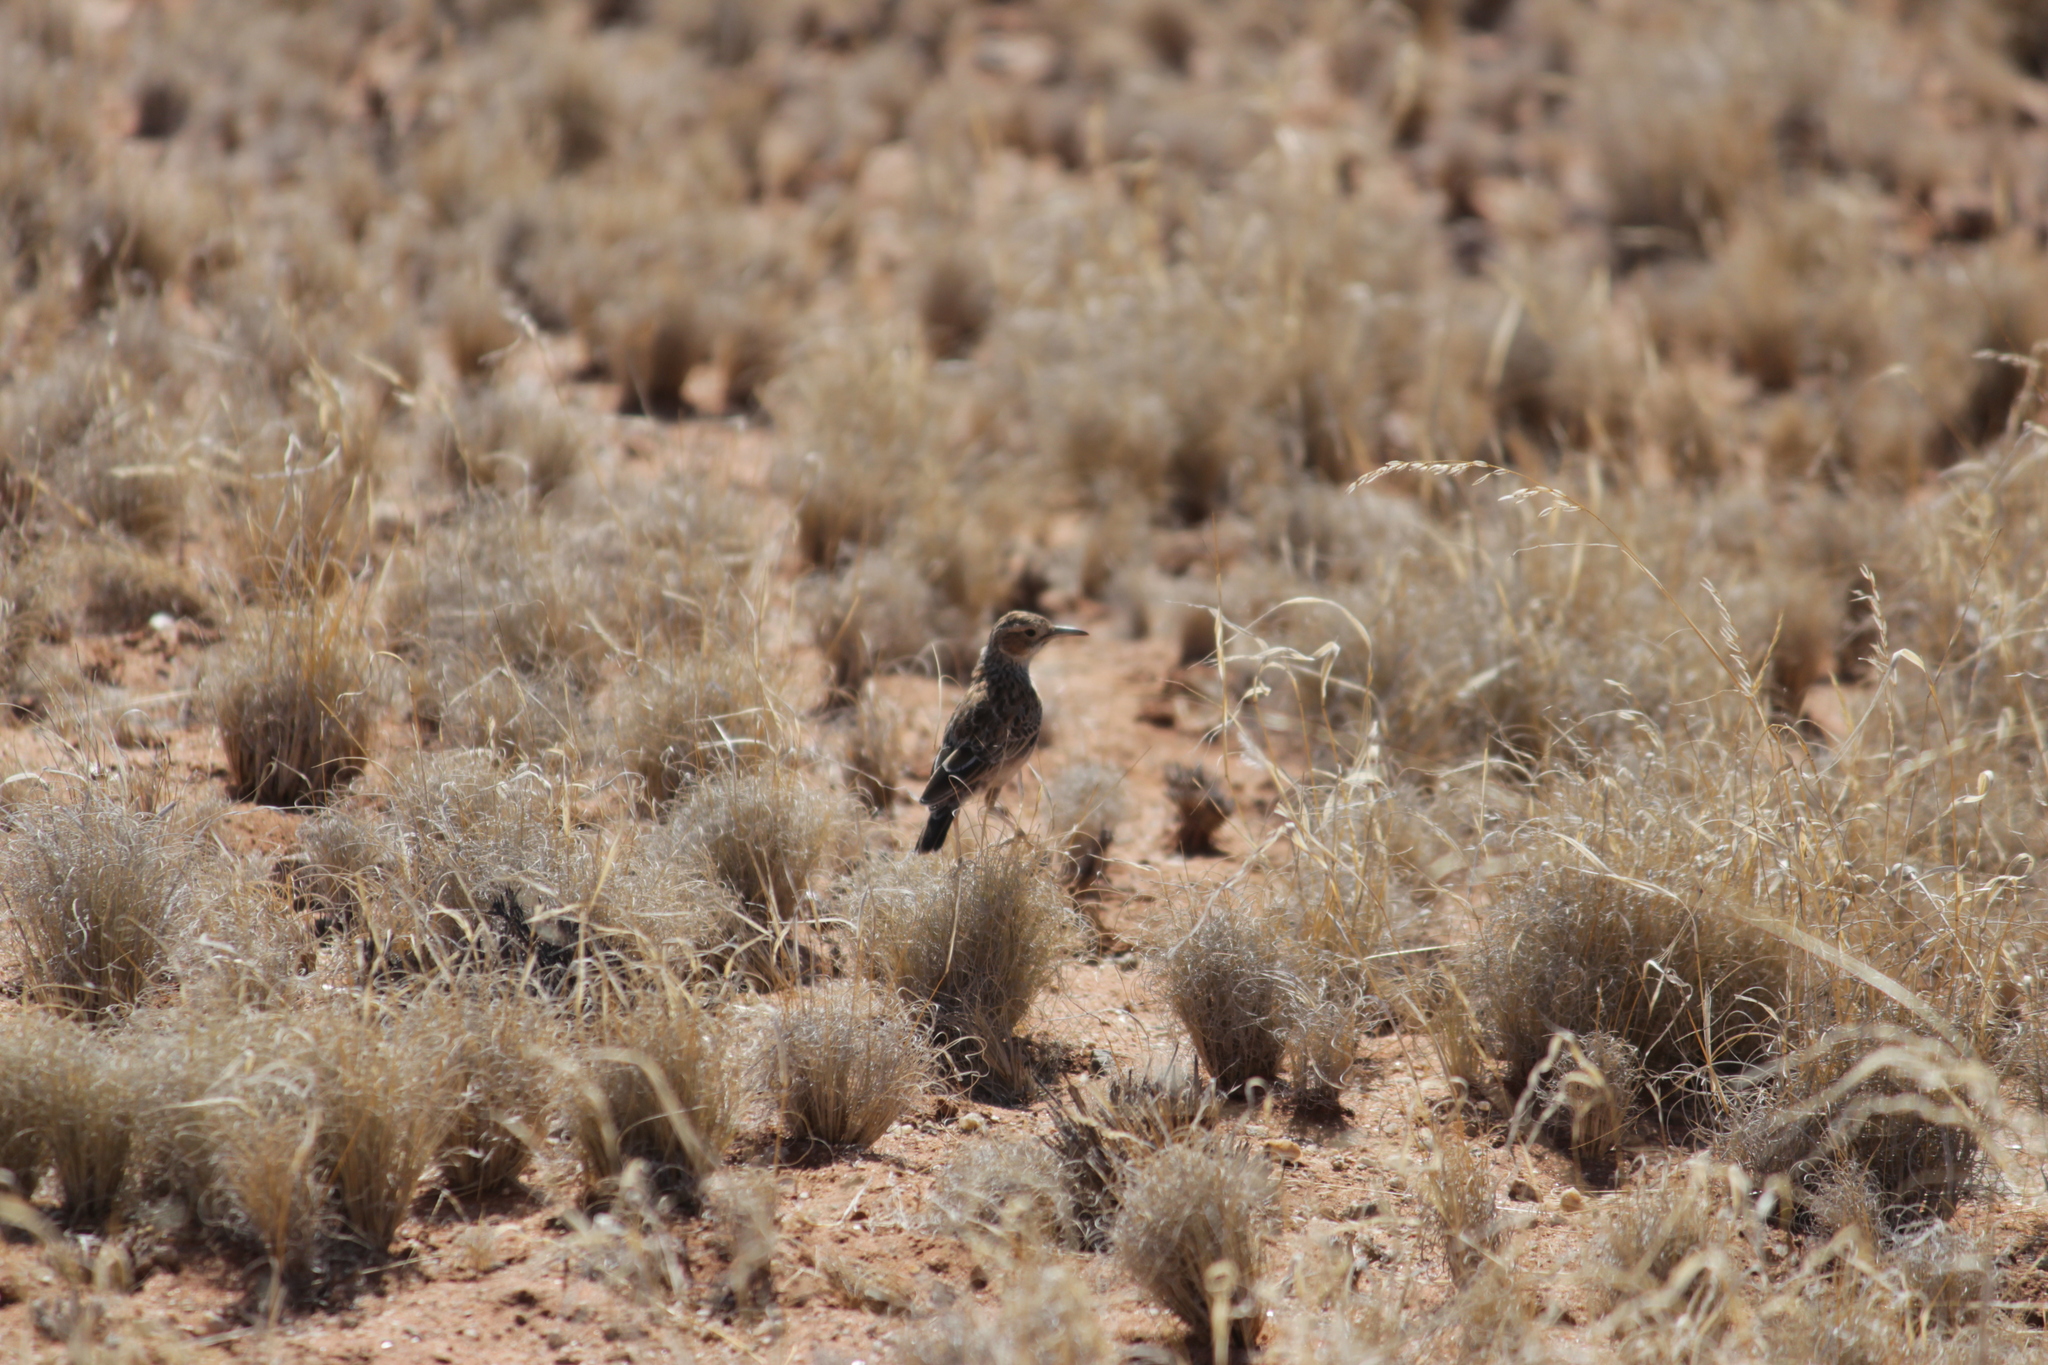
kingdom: Animalia
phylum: Chordata
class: Aves
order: Passeriformes
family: Alaudidae
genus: Chersomanes
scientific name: Chersomanes albofasciata
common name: Spike-heeled lark
